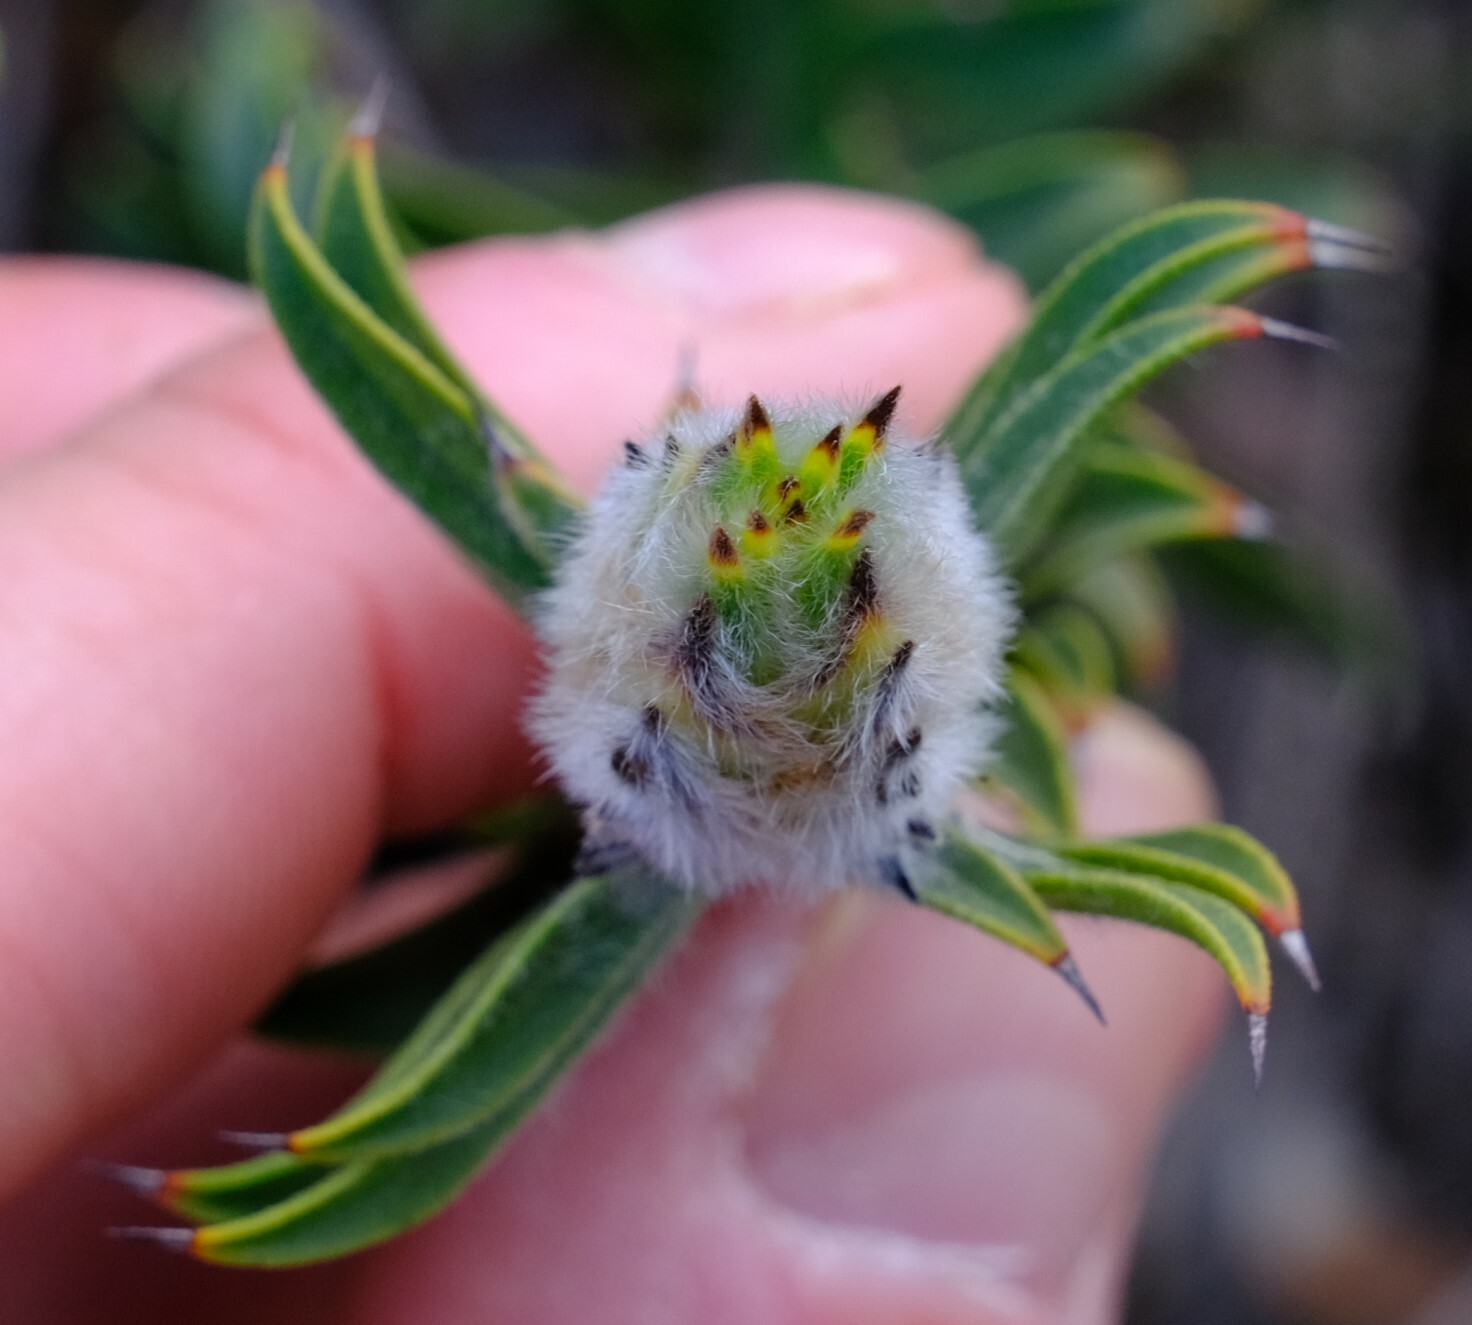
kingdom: Plantae
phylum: Tracheophyta
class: Magnoliopsida
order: Myrtales
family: Myrtaceae
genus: Melaleuca
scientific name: Melaleuca cowleyae
